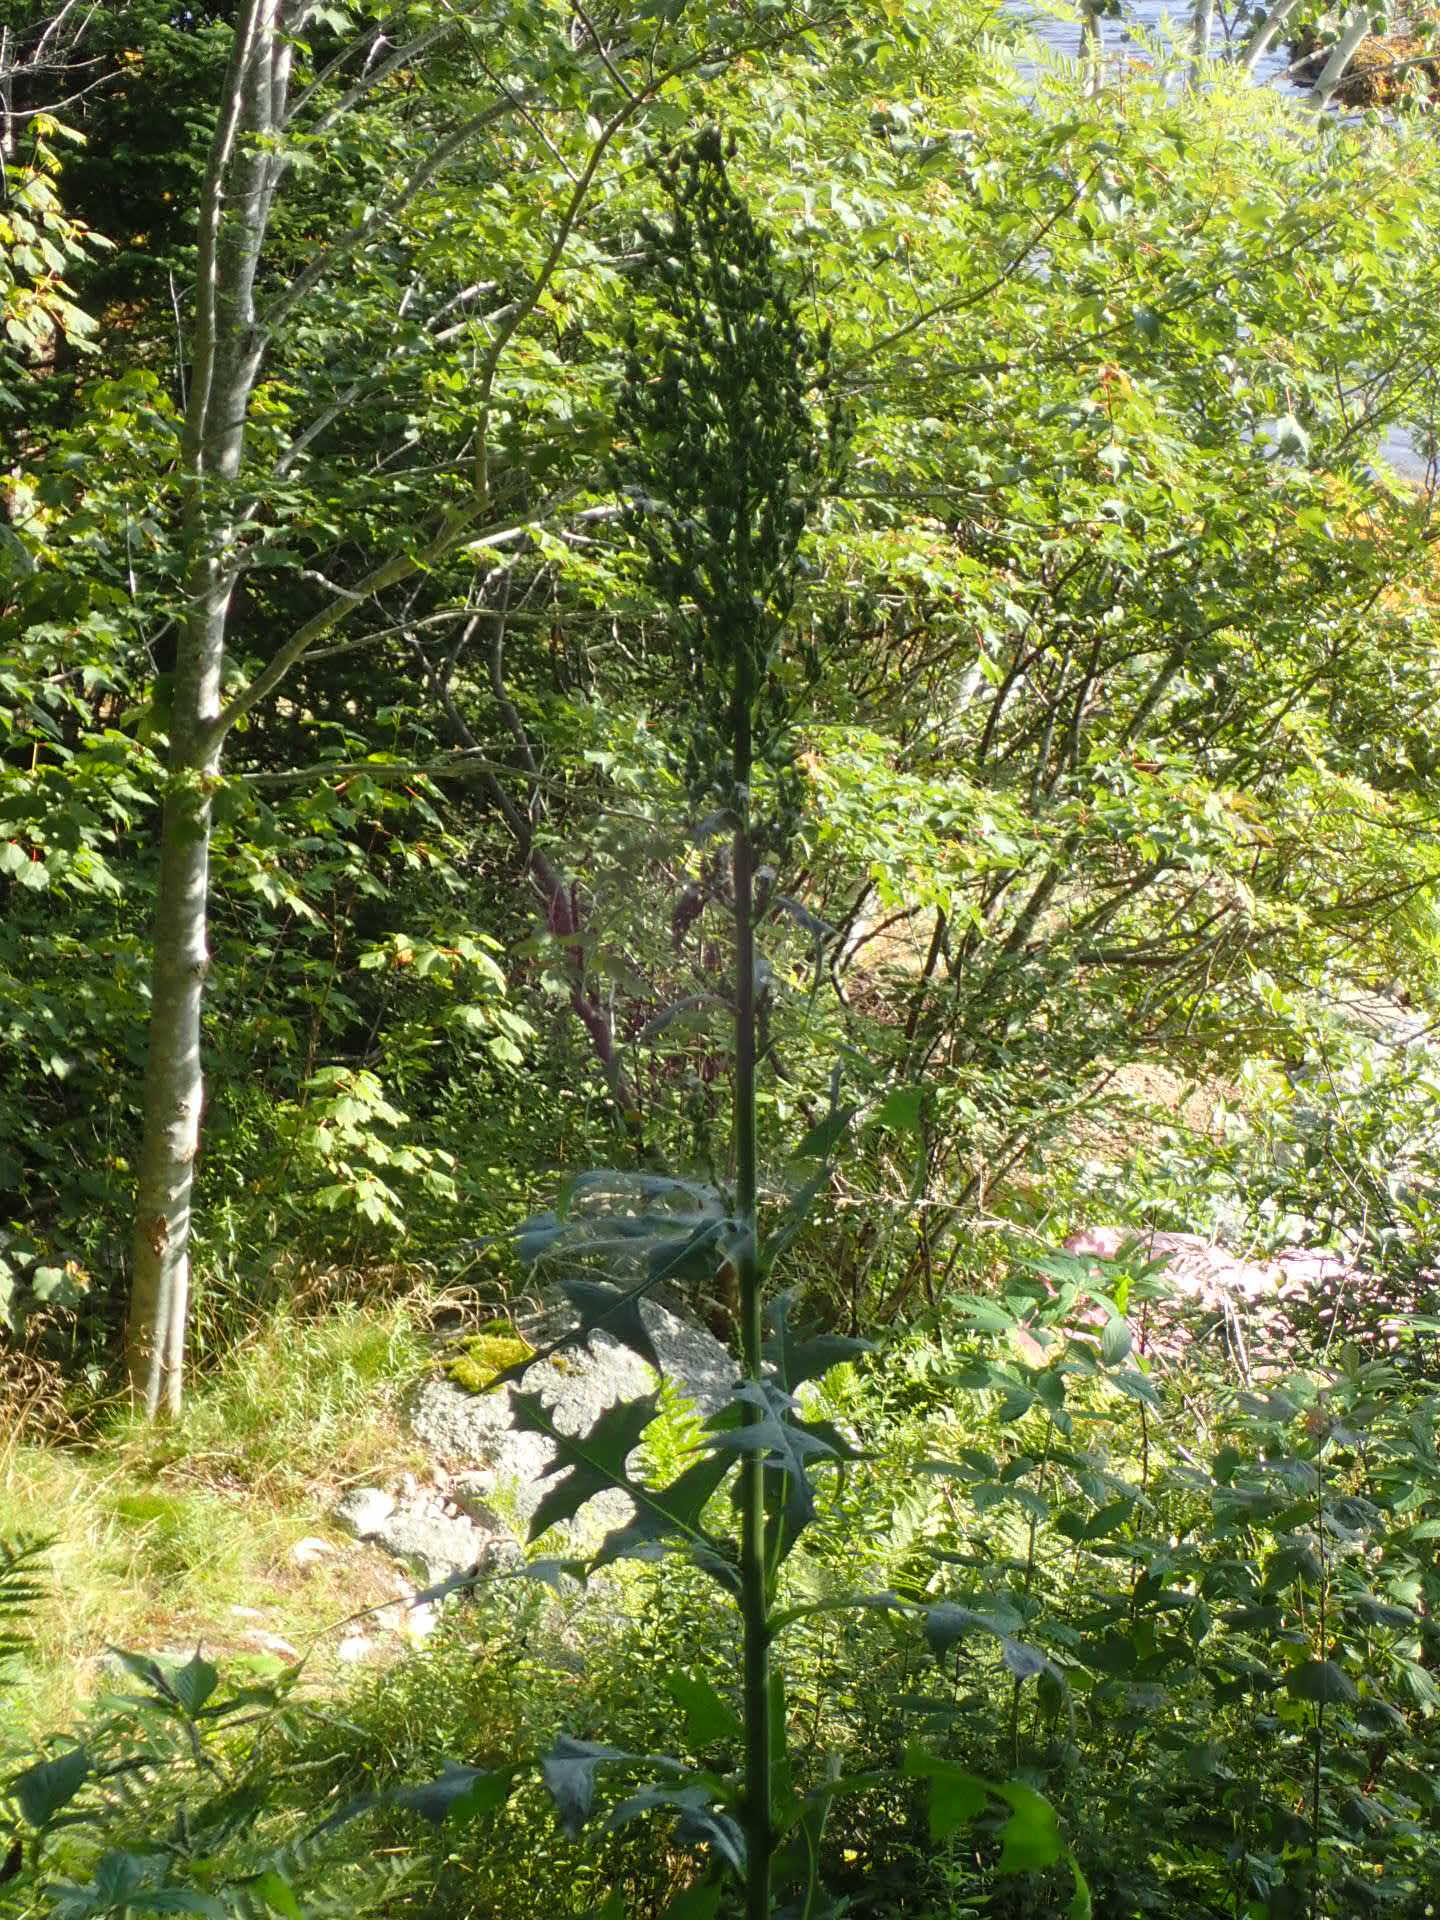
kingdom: Plantae
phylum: Tracheophyta
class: Magnoliopsida
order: Asterales
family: Asteraceae
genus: Lactuca
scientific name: Lactuca biennis
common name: Blue wood lettuce
